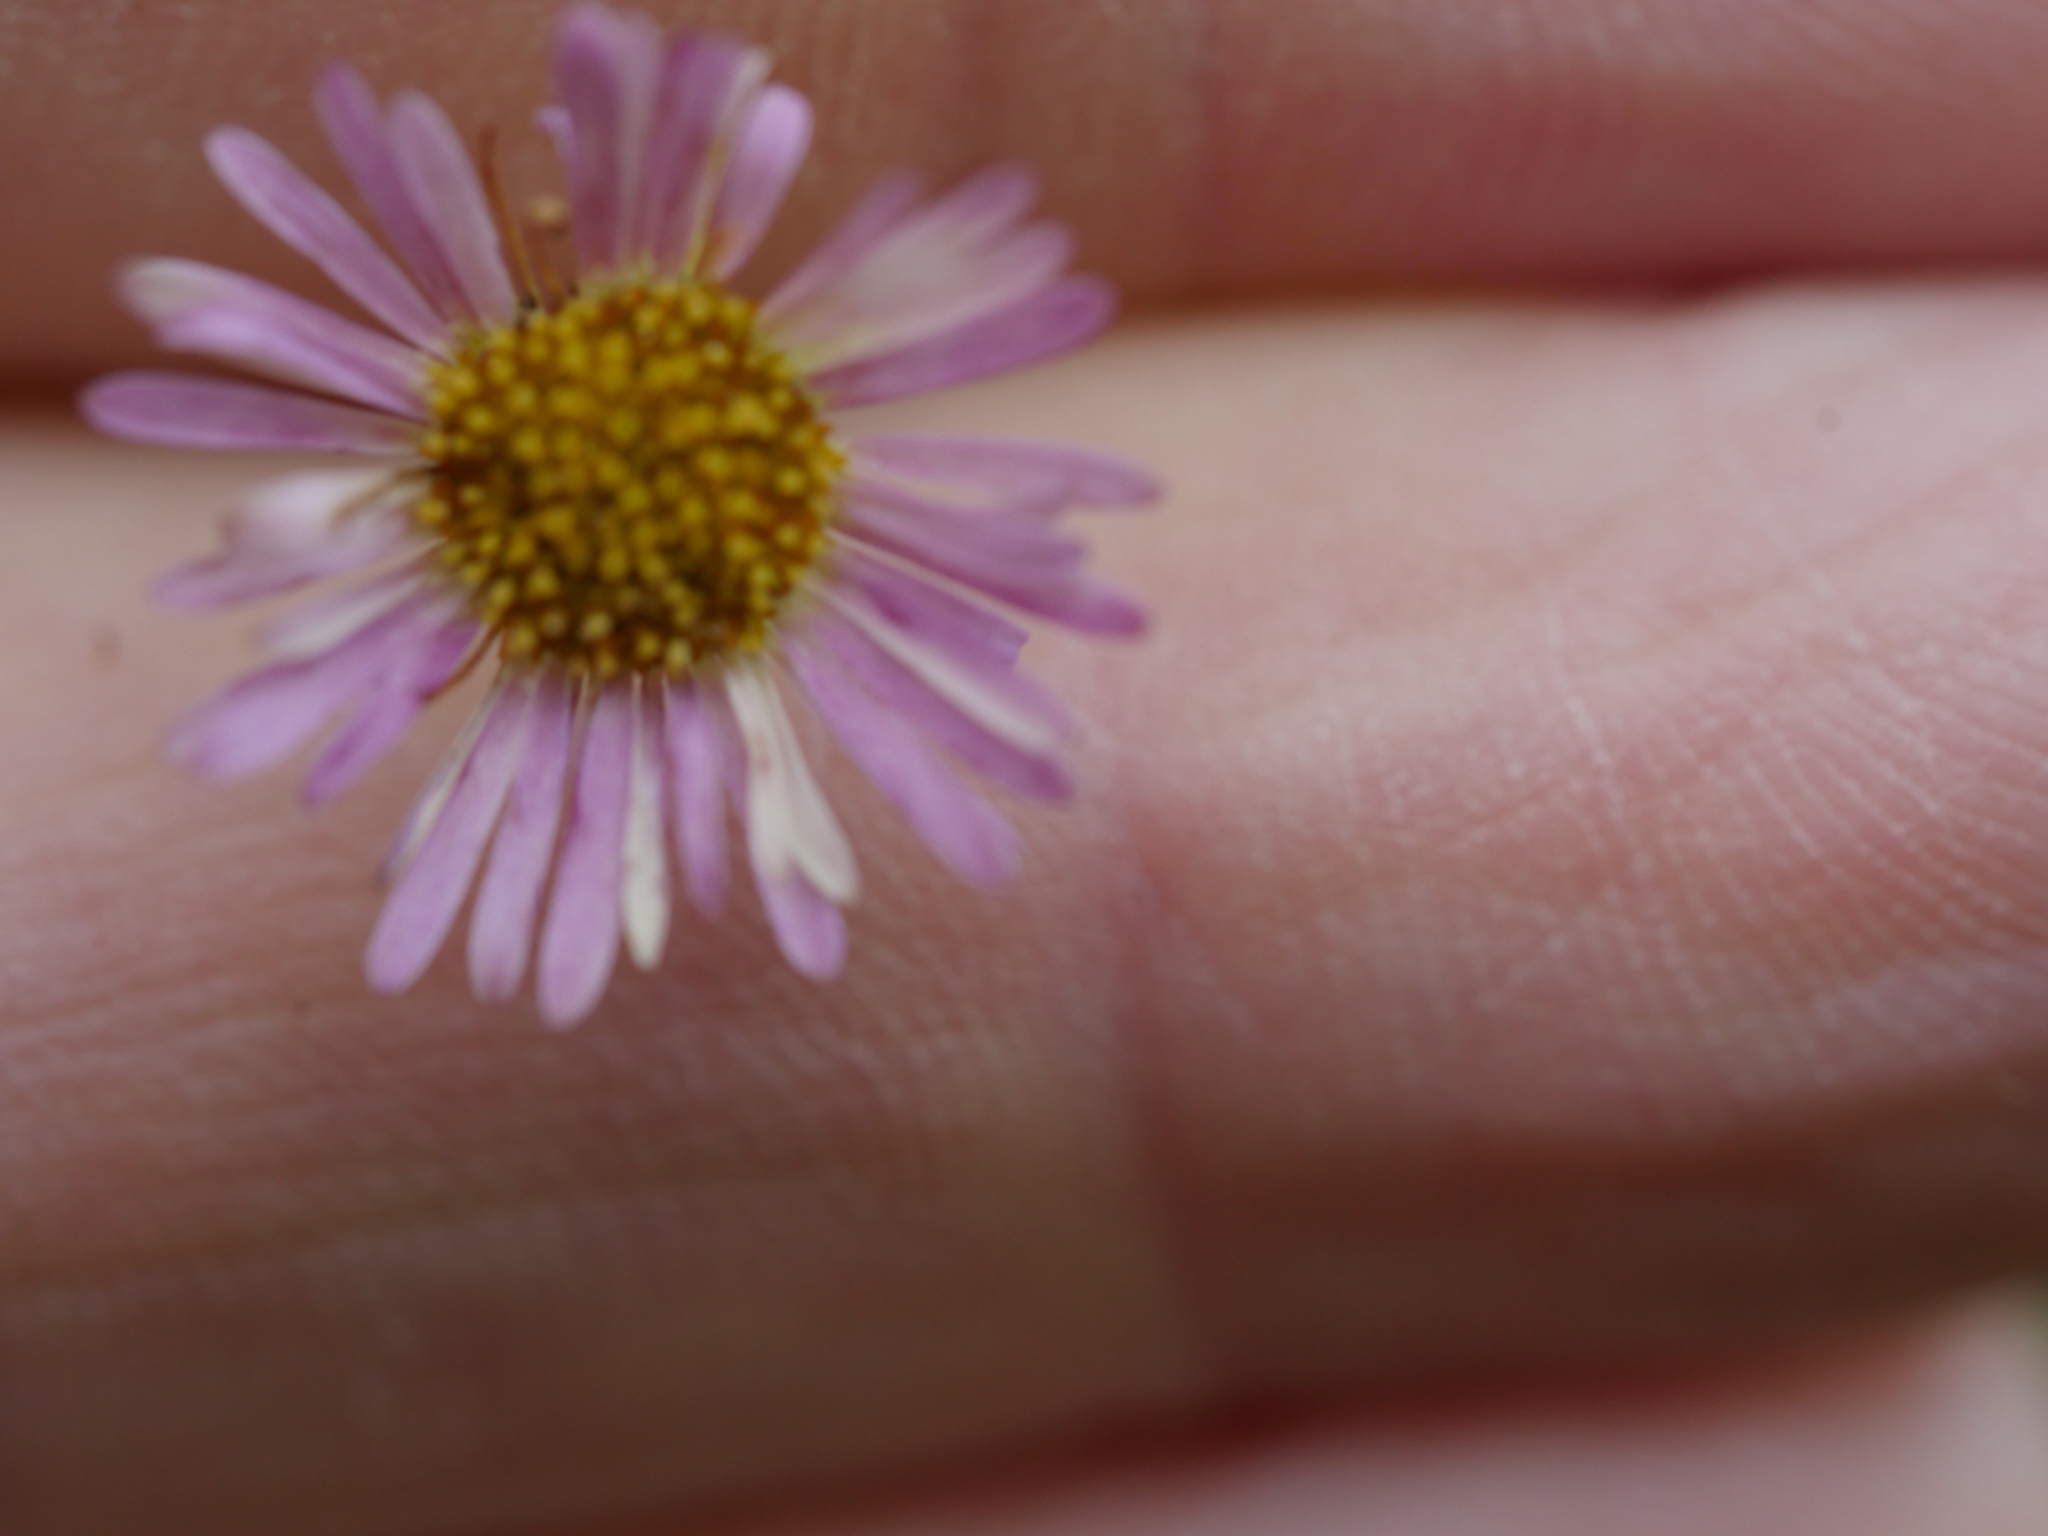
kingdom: Plantae
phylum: Tracheophyta
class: Magnoliopsida
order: Asterales
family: Asteraceae
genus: Erigeron
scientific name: Erigeron karvinskianus
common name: Mexican fleabane
